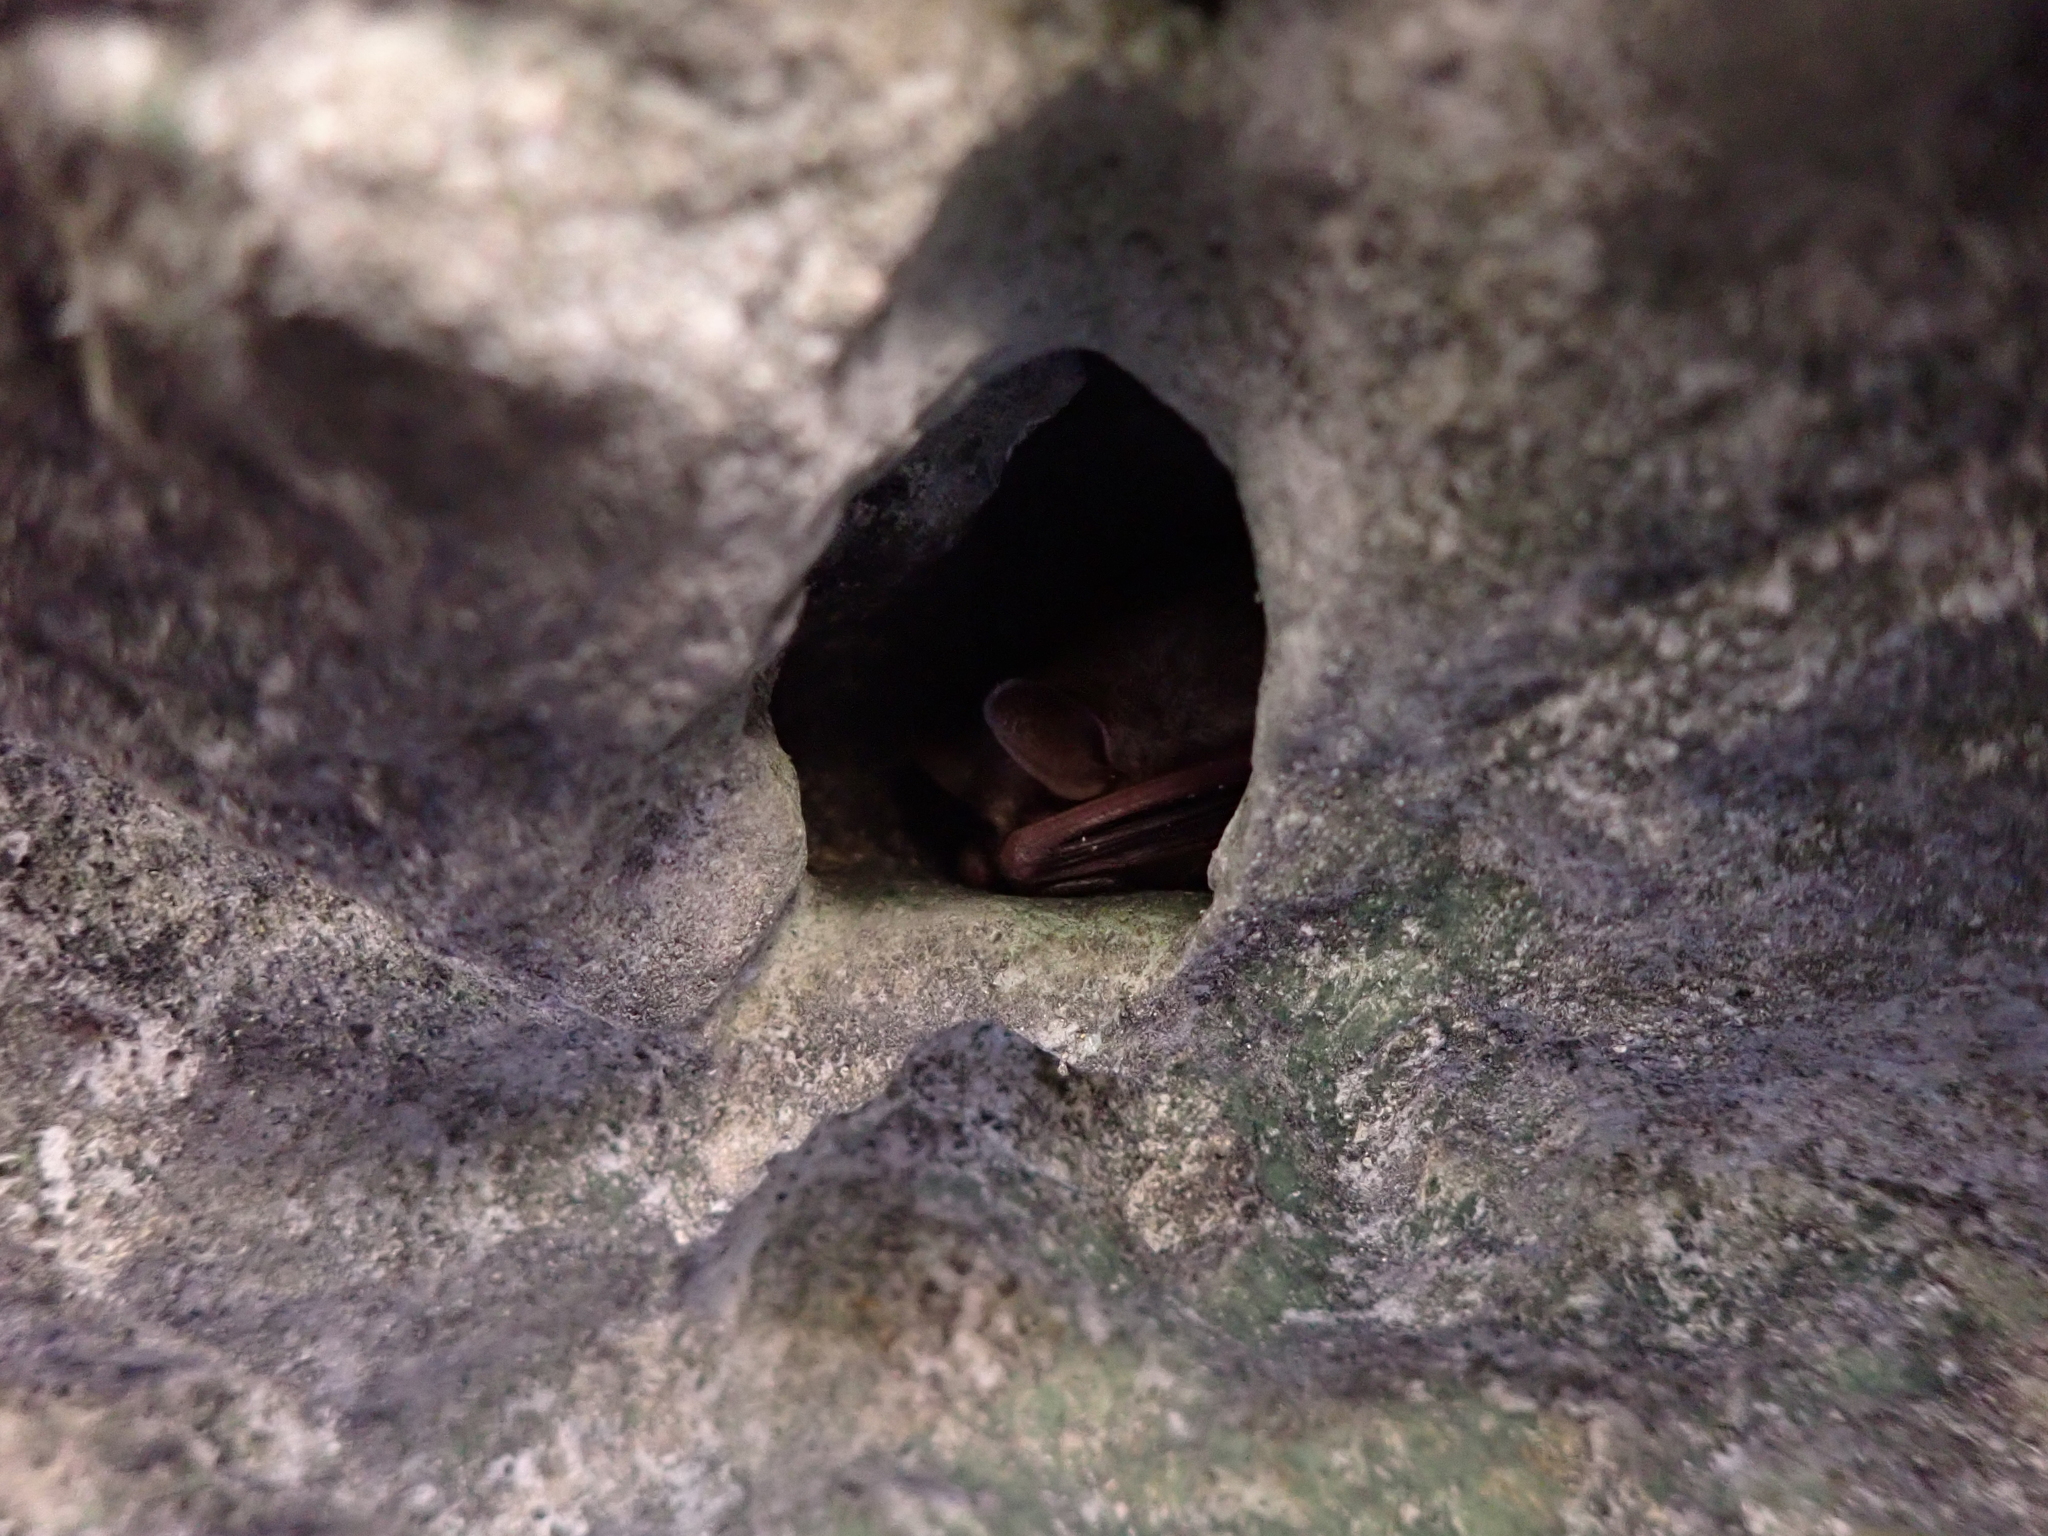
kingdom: Animalia
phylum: Chordata
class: Mammalia
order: Chiroptera
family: Vespertilionidae
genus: Perimyotis
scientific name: Perimyotis subflavus
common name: Eastern pipistrelle
